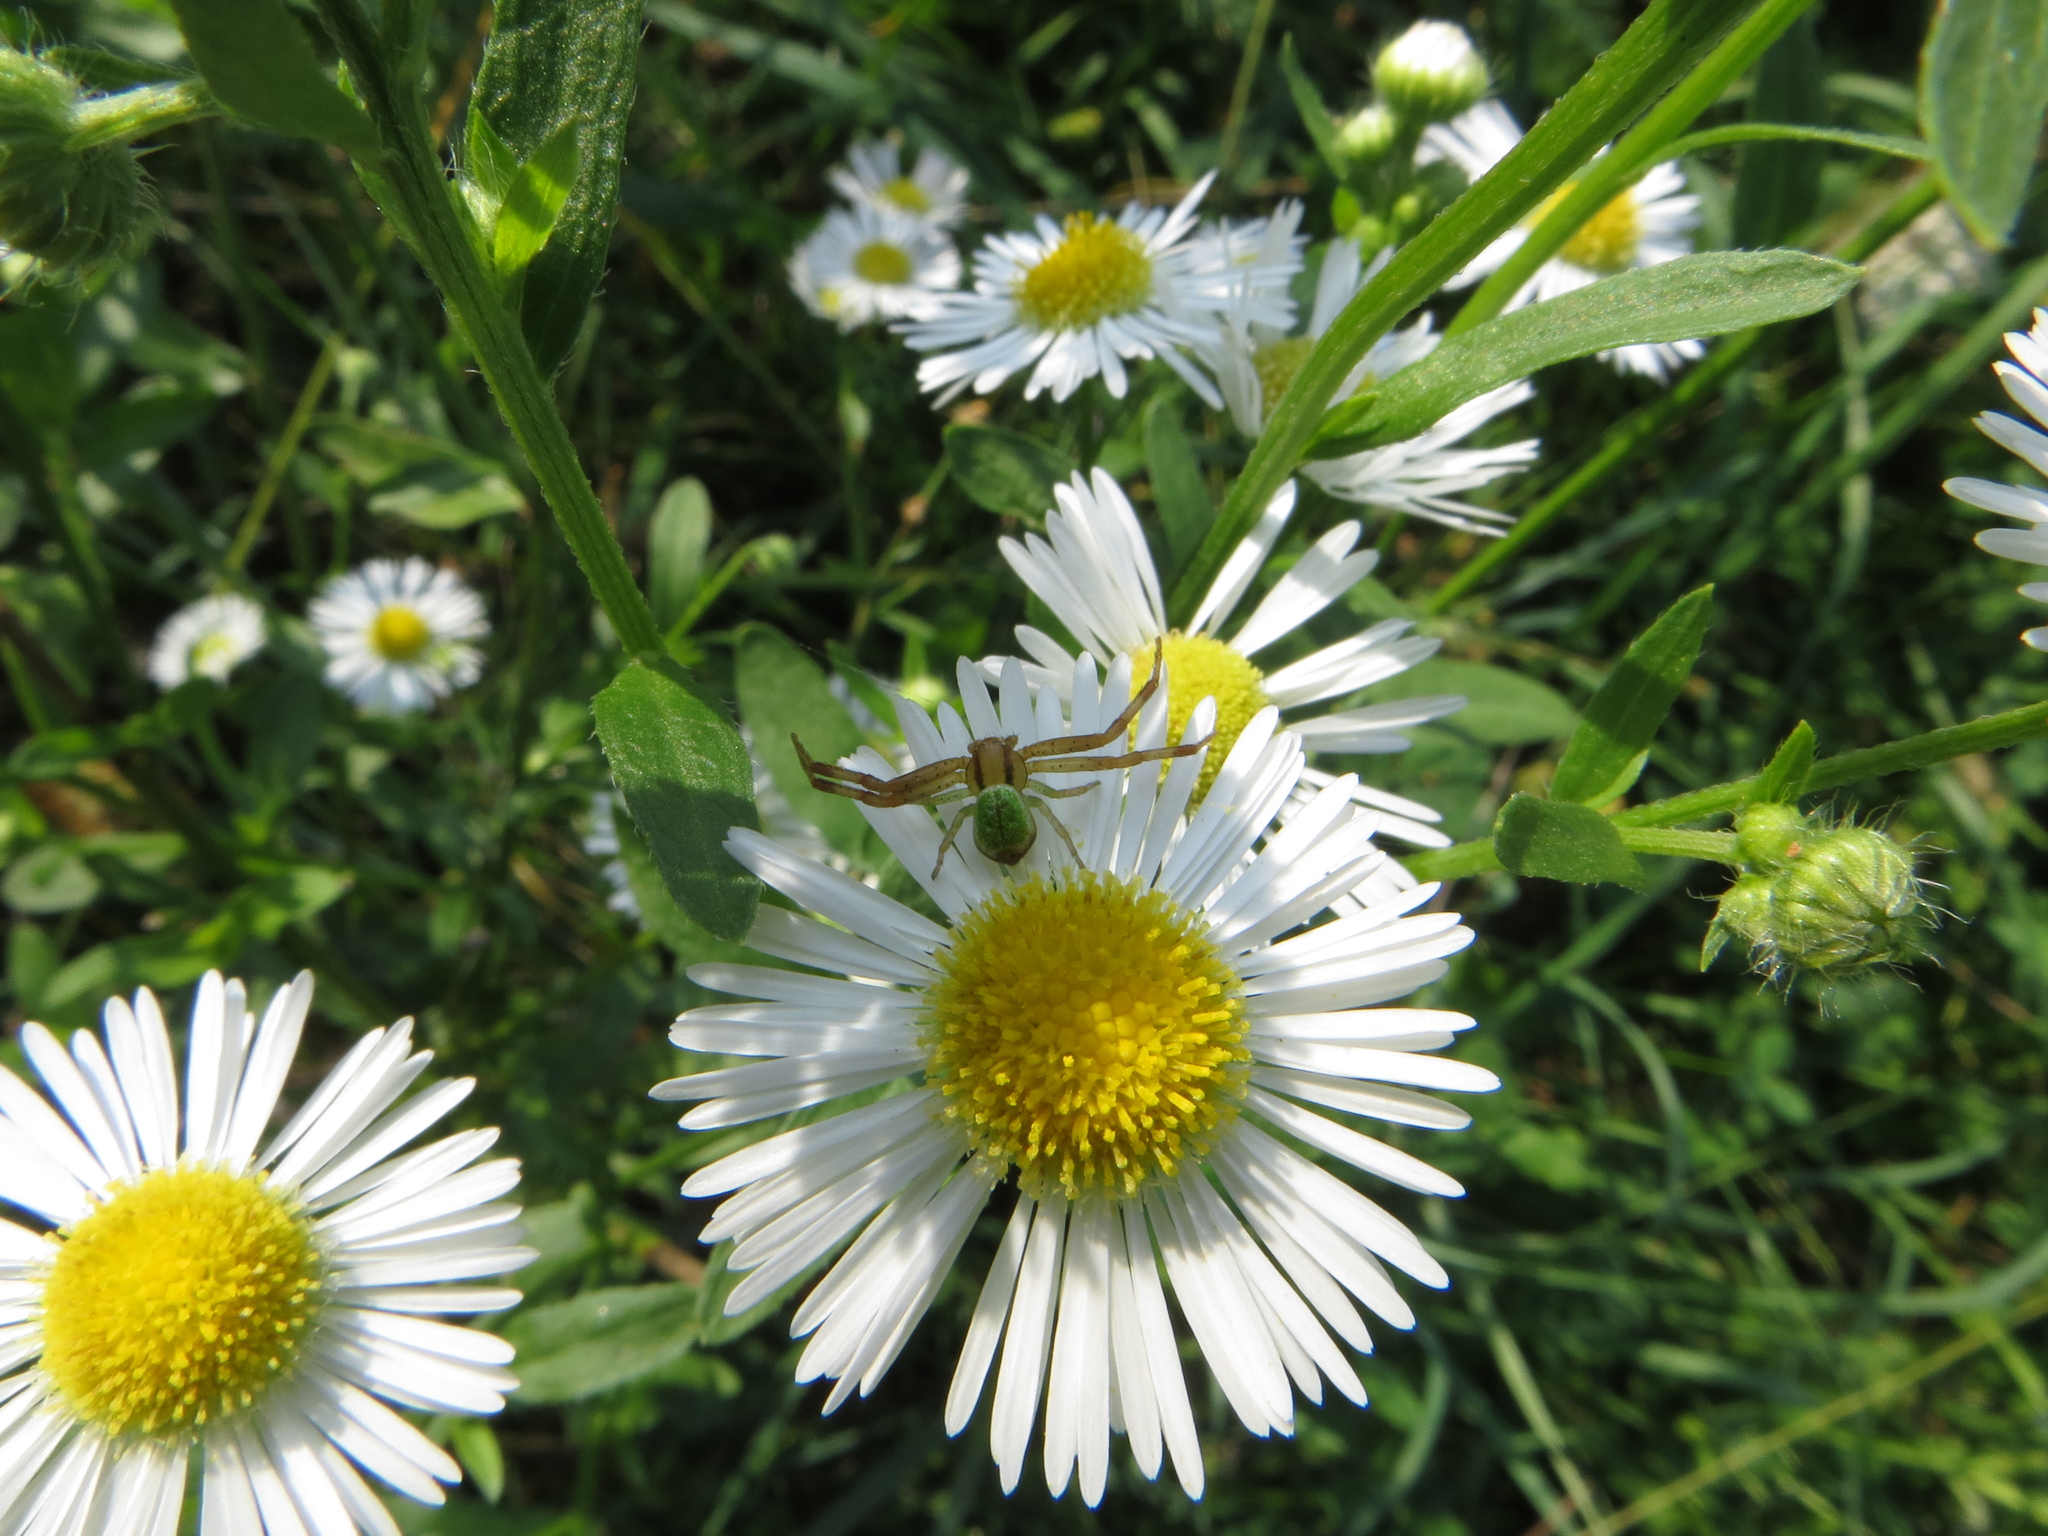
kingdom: Animalia
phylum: Arthropoda
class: Arachnida
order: Araneae
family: Thomisidae
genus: Ebrechtella
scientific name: Ebrechtella tricuspidata
